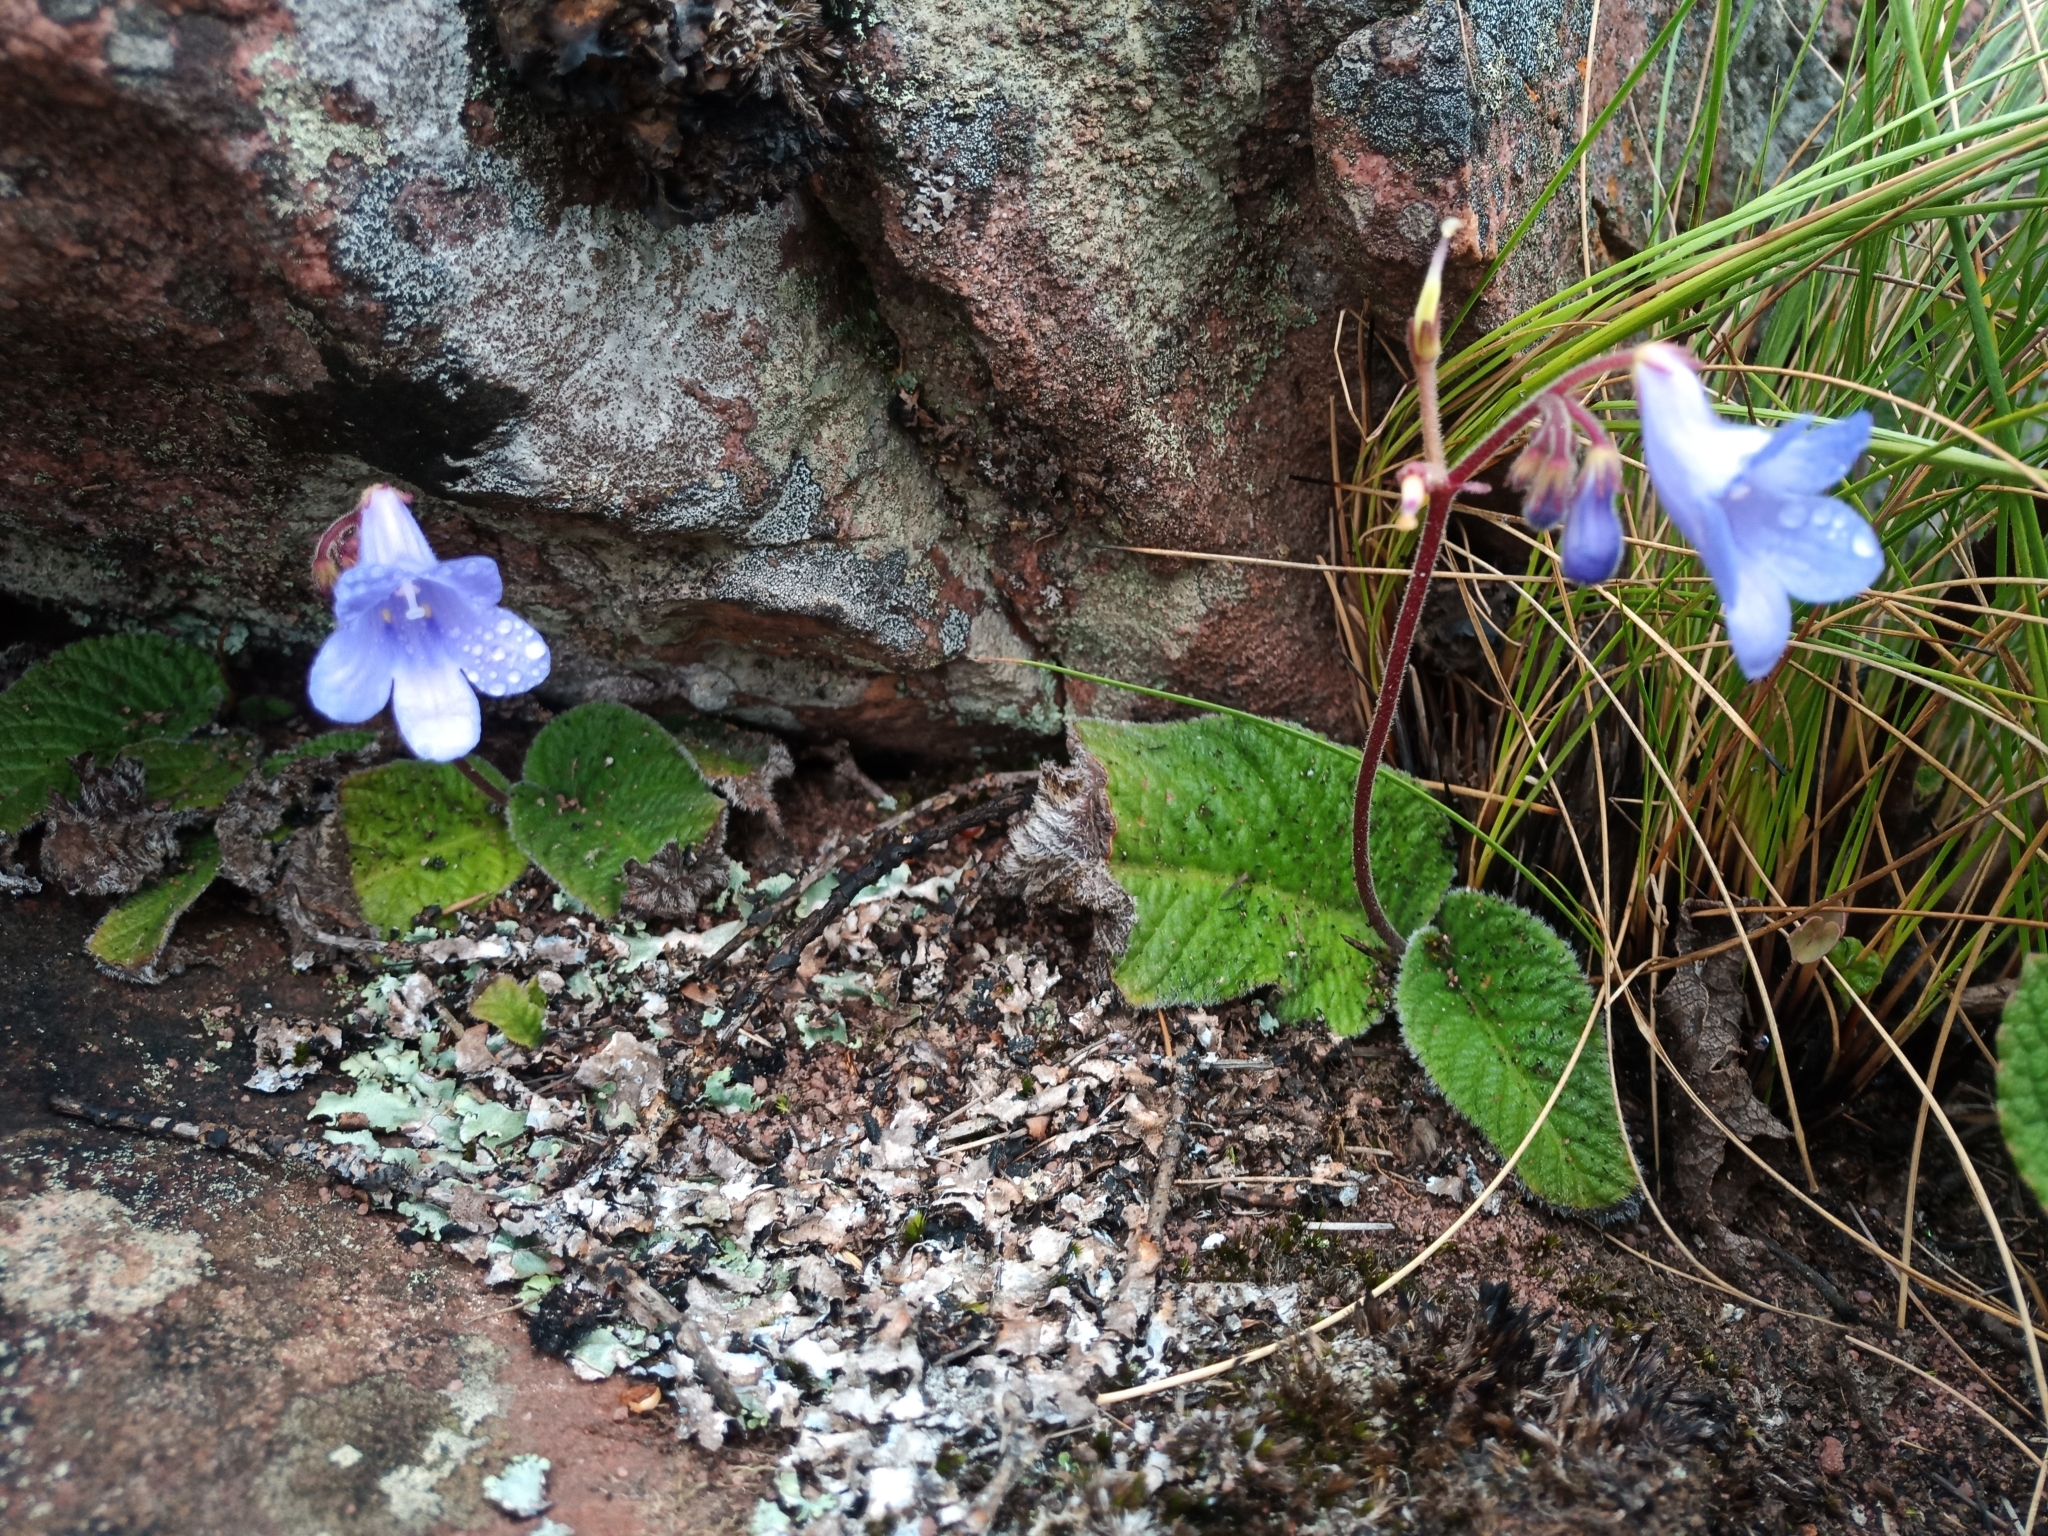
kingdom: Plantae
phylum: Tracheophyta
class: Magnoliopsida
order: Lamiales
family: Gesneriaceae
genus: Streptocarpus
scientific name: Streptocarpus caeruleus
